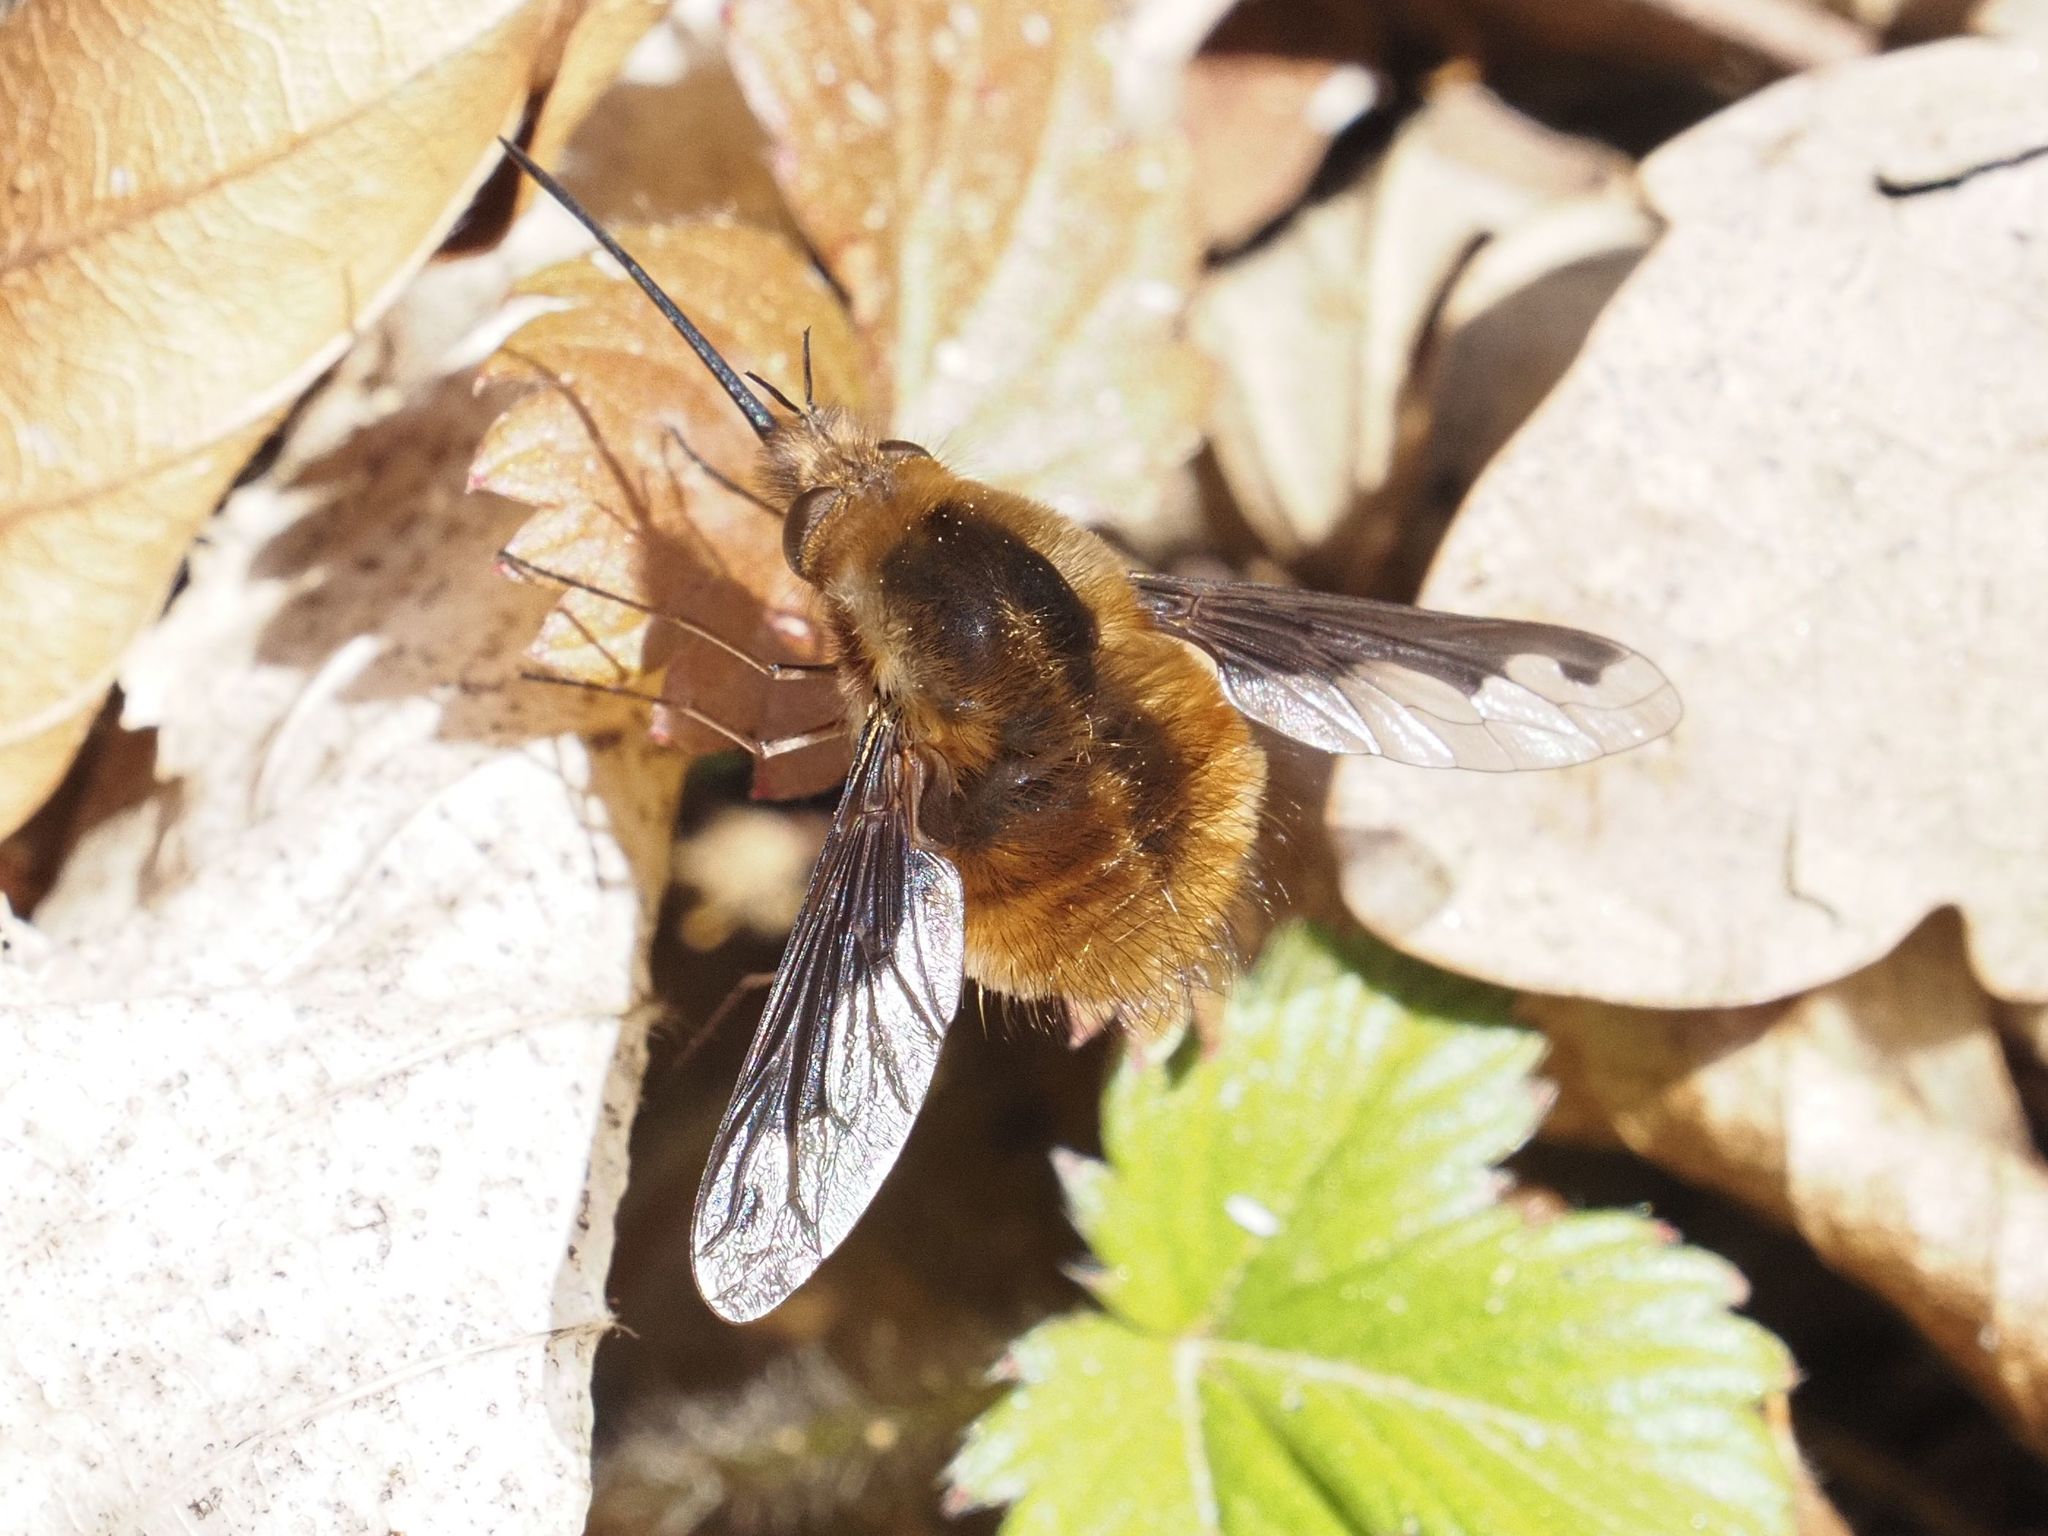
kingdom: Animalia
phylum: Arthropoda
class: Insecta
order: Diptera
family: Bombyliidae
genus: Bombylius
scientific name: Bombylius major
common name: Bee fly
